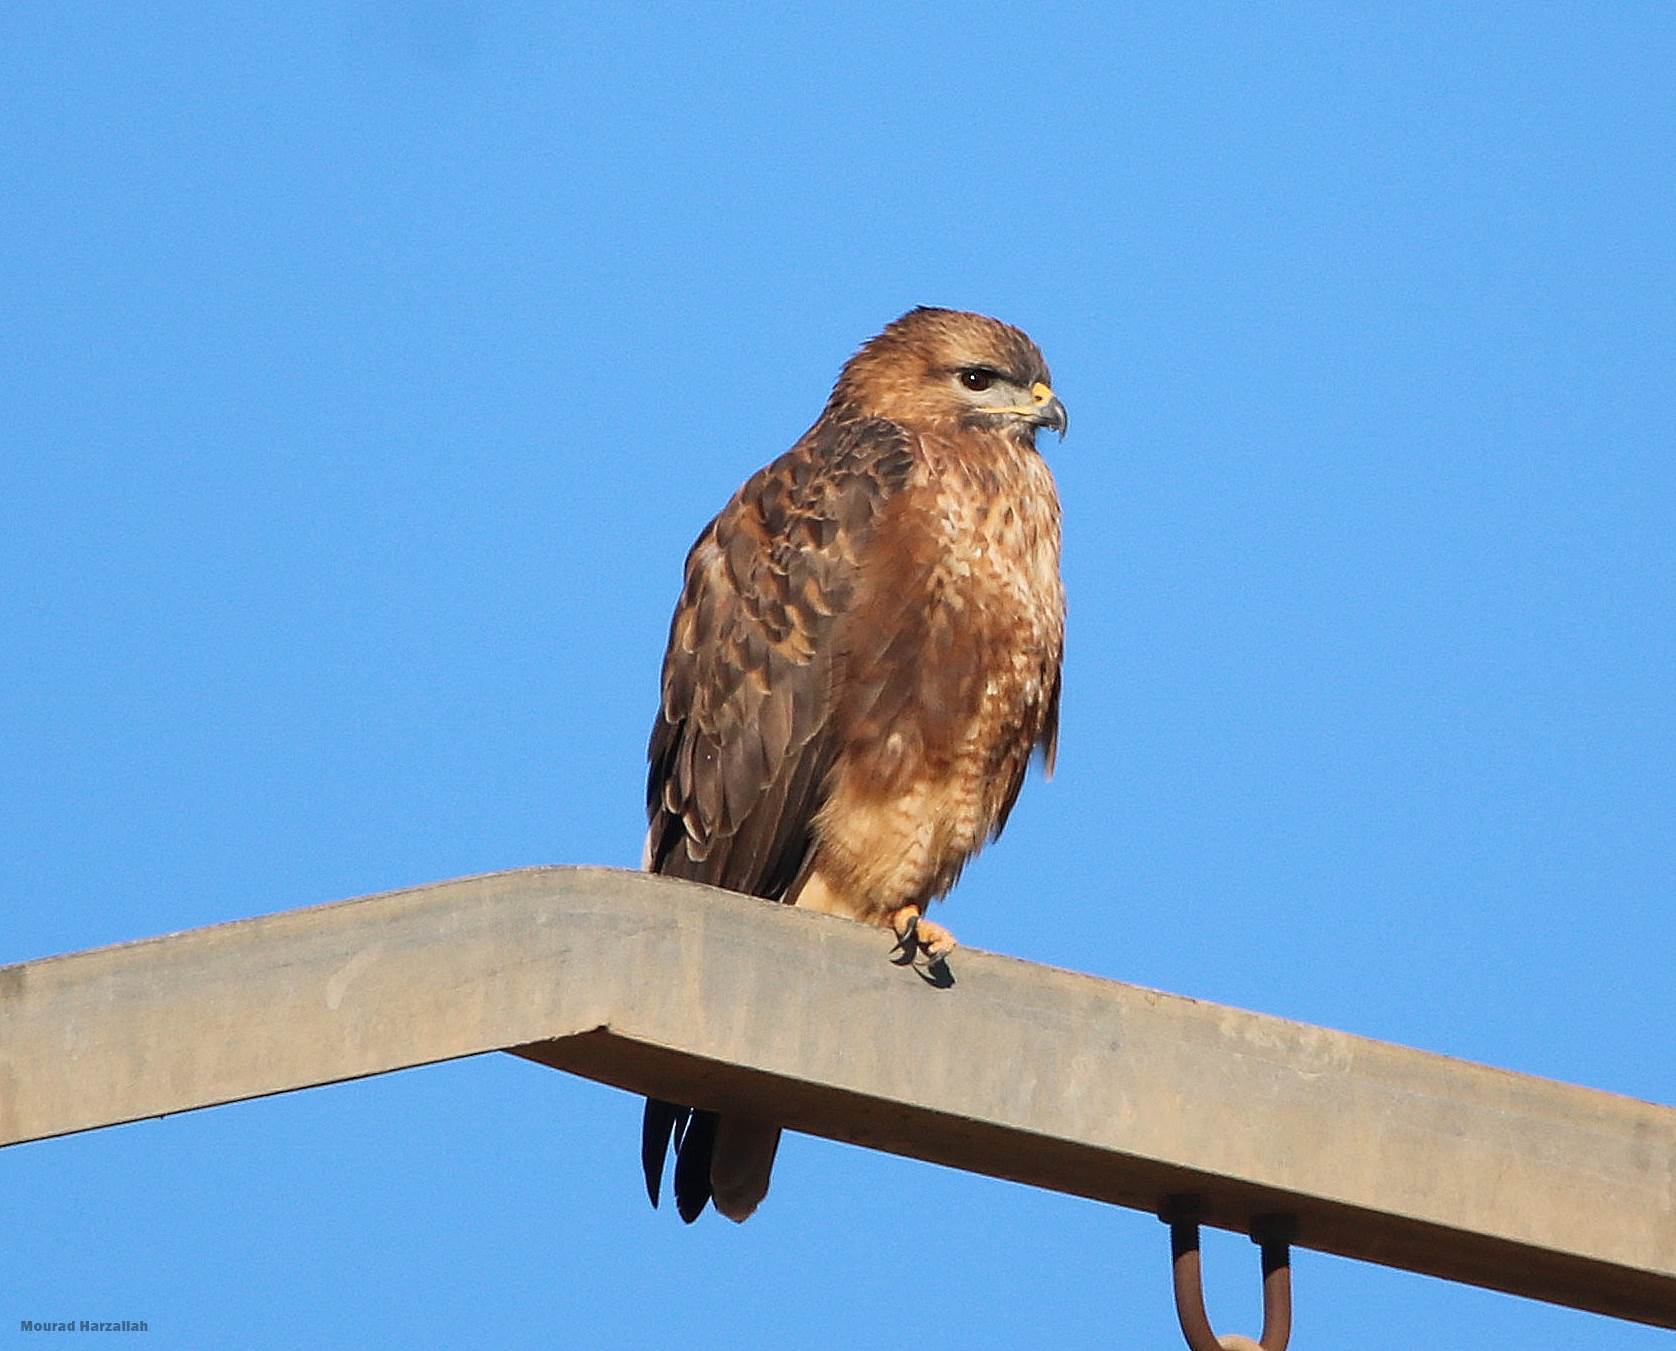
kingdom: Animalia
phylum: Chordata
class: Aves
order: Accipitriformes
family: Accipitridae
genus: Buteo
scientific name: Buteo buteo
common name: Common buzzard
